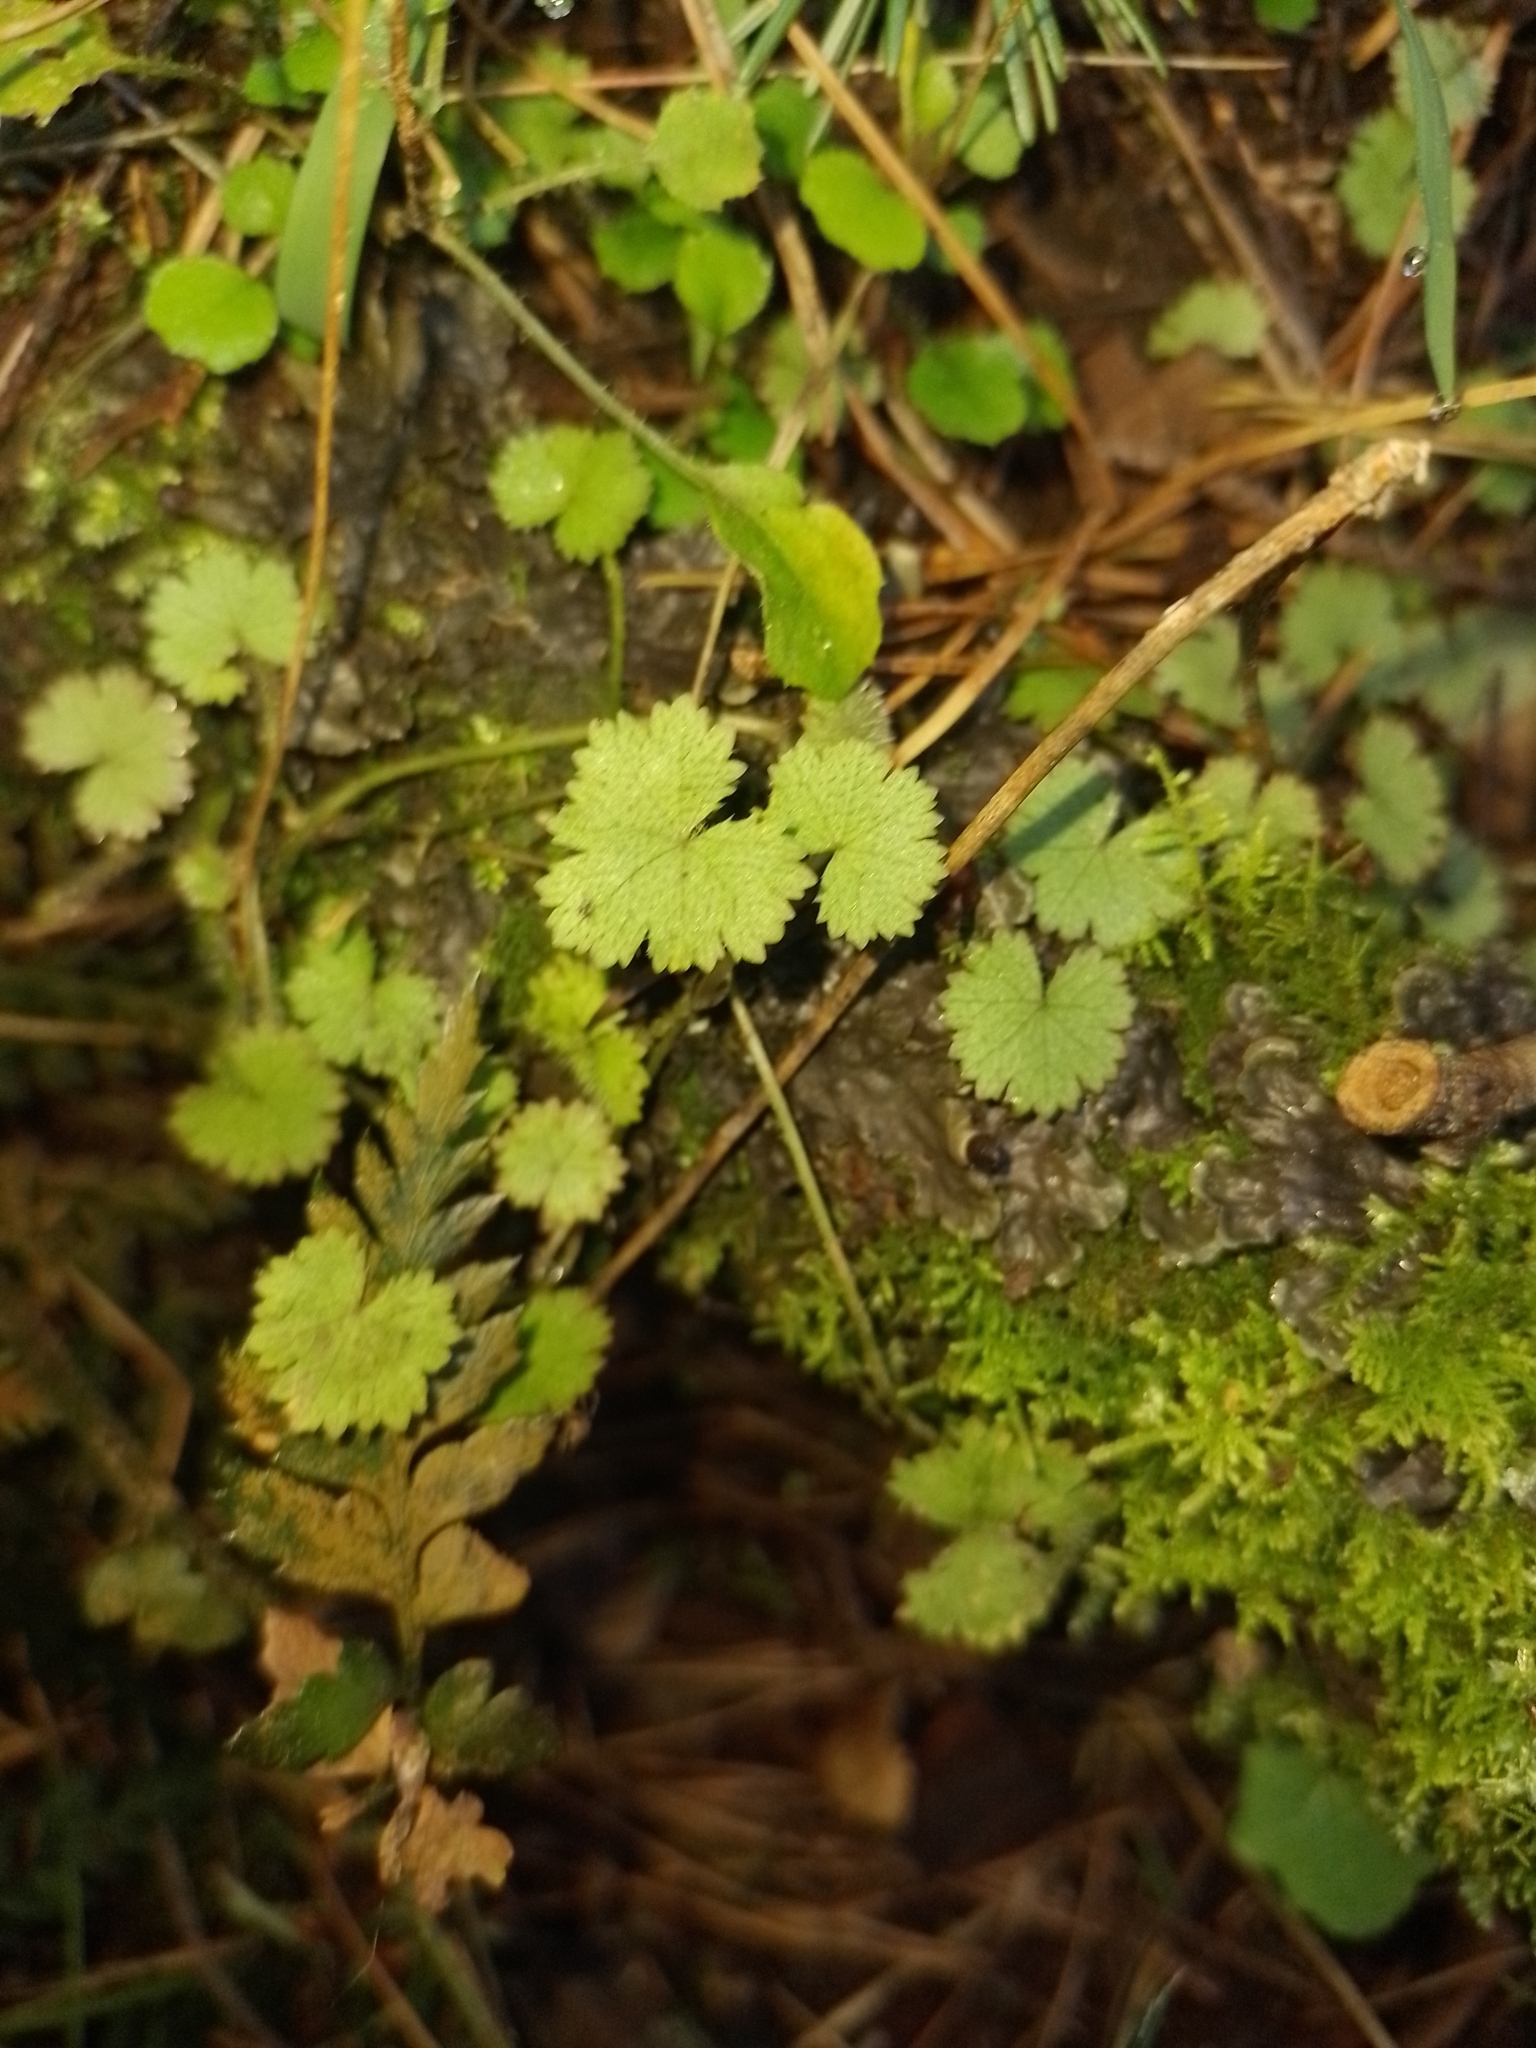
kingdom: Plantae
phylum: Tracheophyta
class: Magnoliopsida
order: Apiales
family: Araliaceae
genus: Hydrocotyle
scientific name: Hydrocotyle moschata
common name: Hairy pennywort
